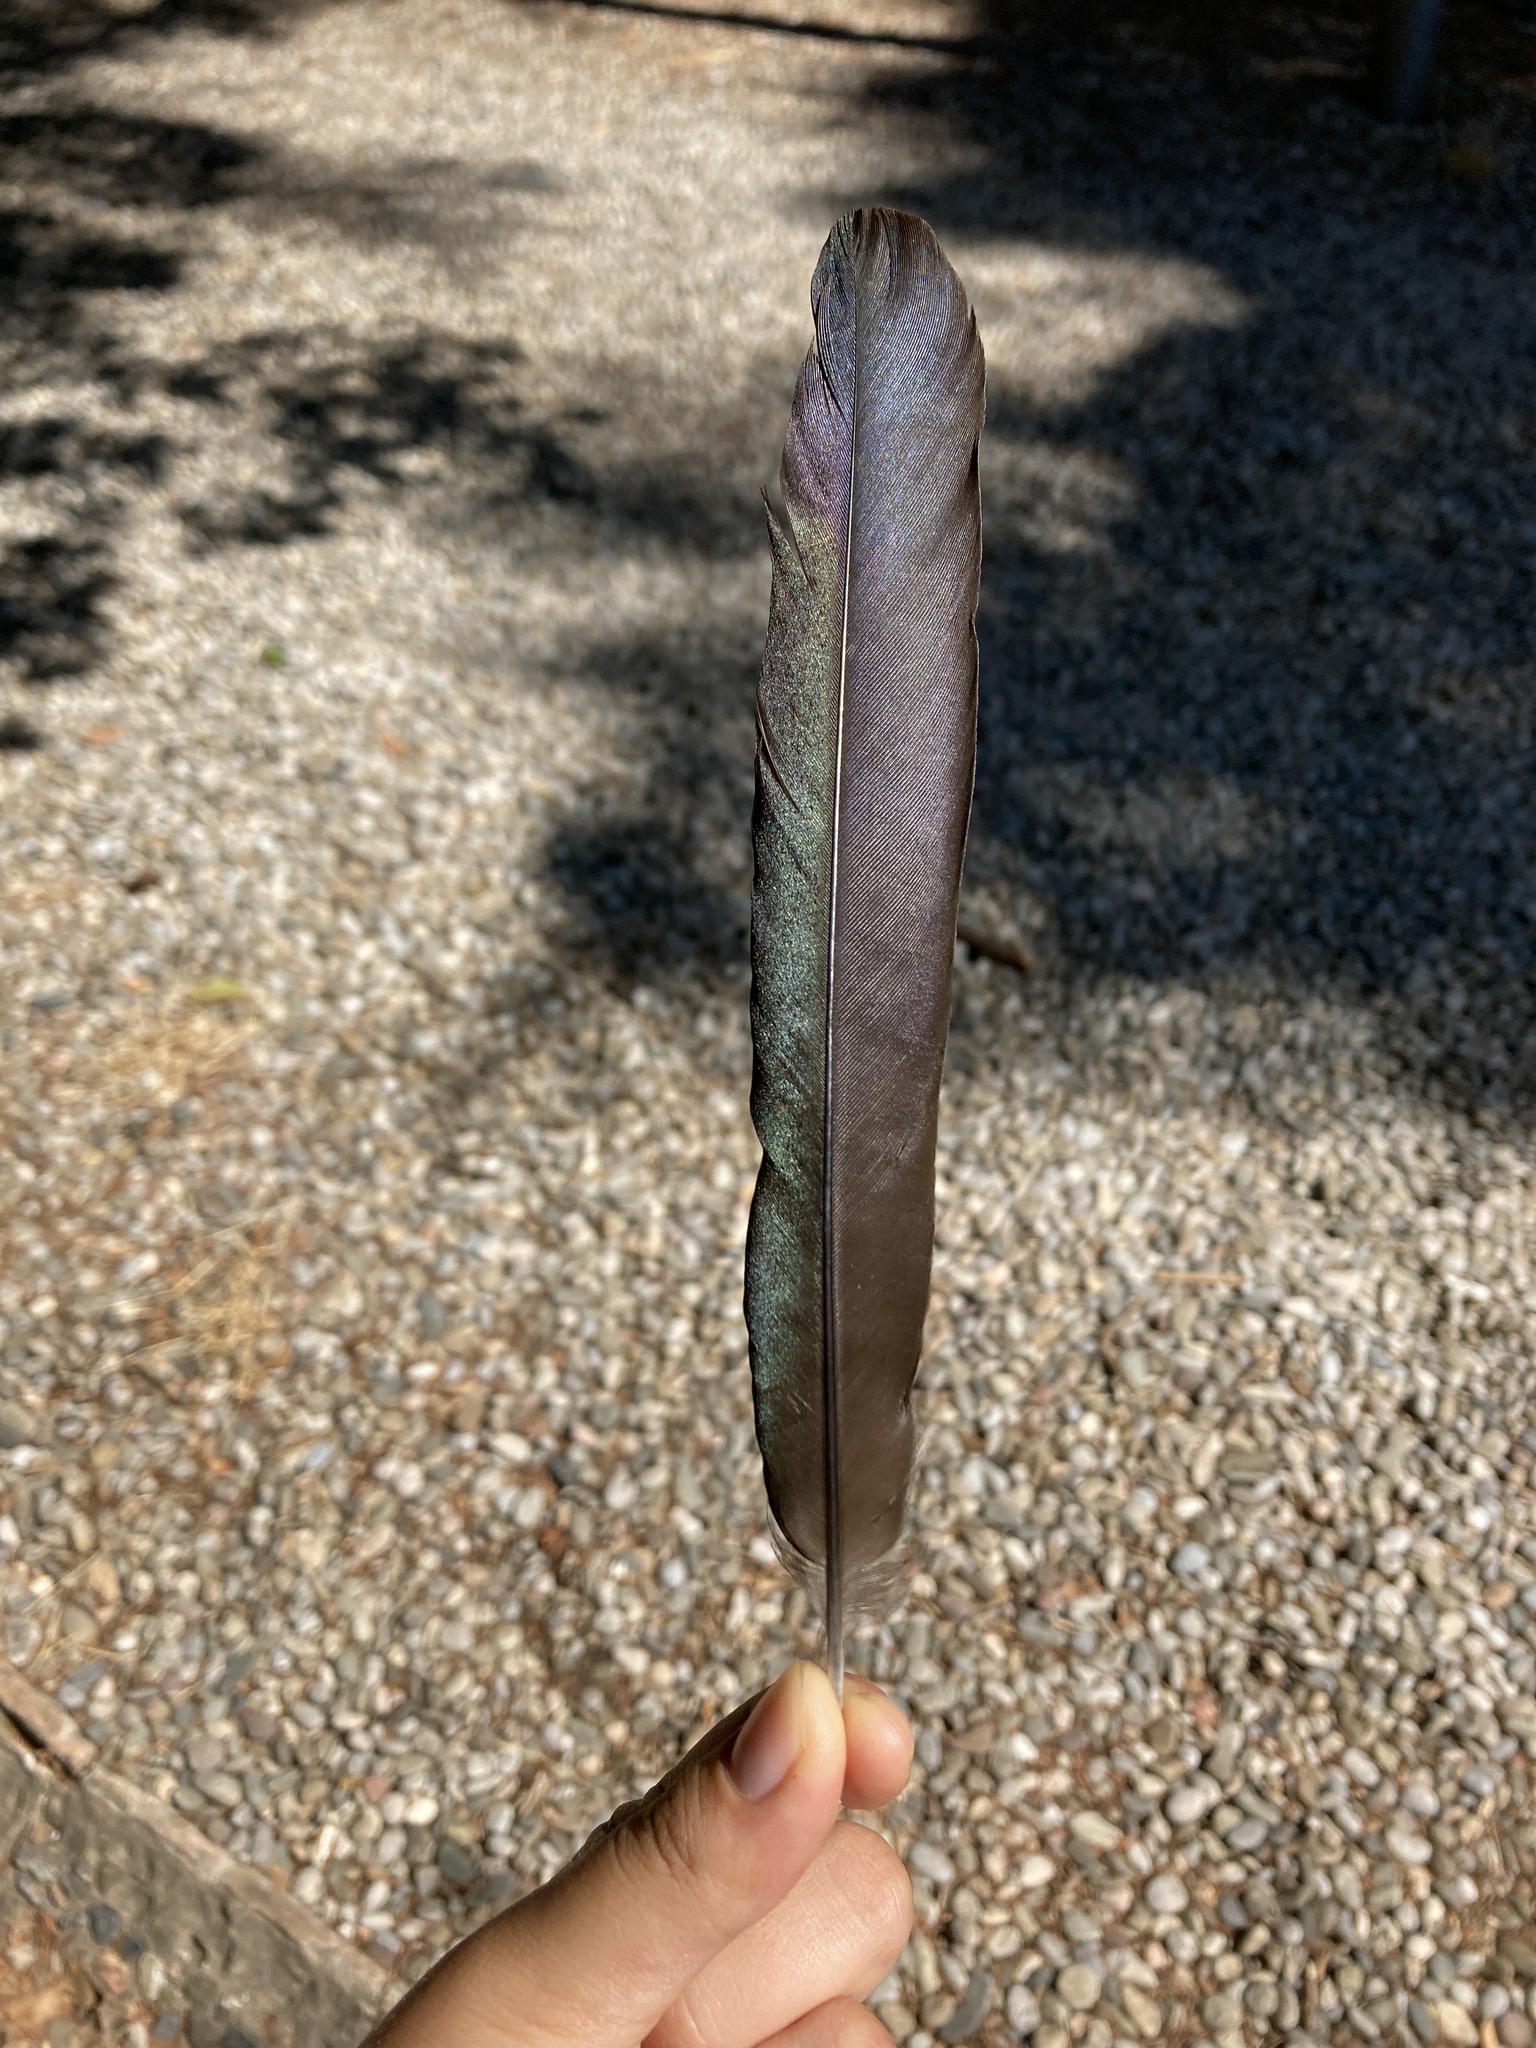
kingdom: Animalia
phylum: Chordata
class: Aves
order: Passeriformes
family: Corvidae
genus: Pica
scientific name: Pica pica
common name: Eurasian magpie
